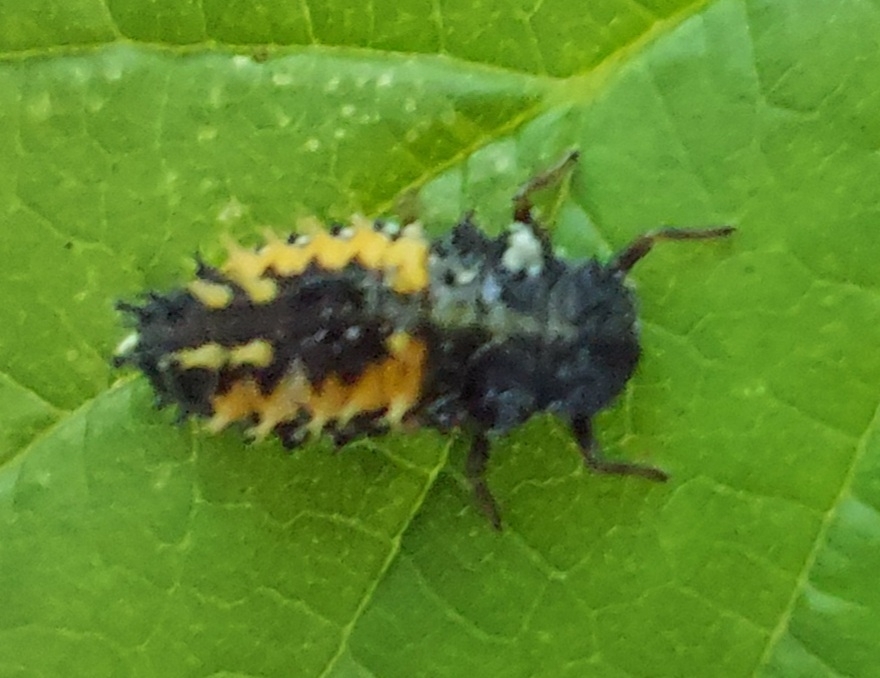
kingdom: Animalia
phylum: Arthropoda
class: Insecta
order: Coleoptera
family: Coccinellidae
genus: Harmonia
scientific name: Harmonia axyridis
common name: Harlequin ladybird
